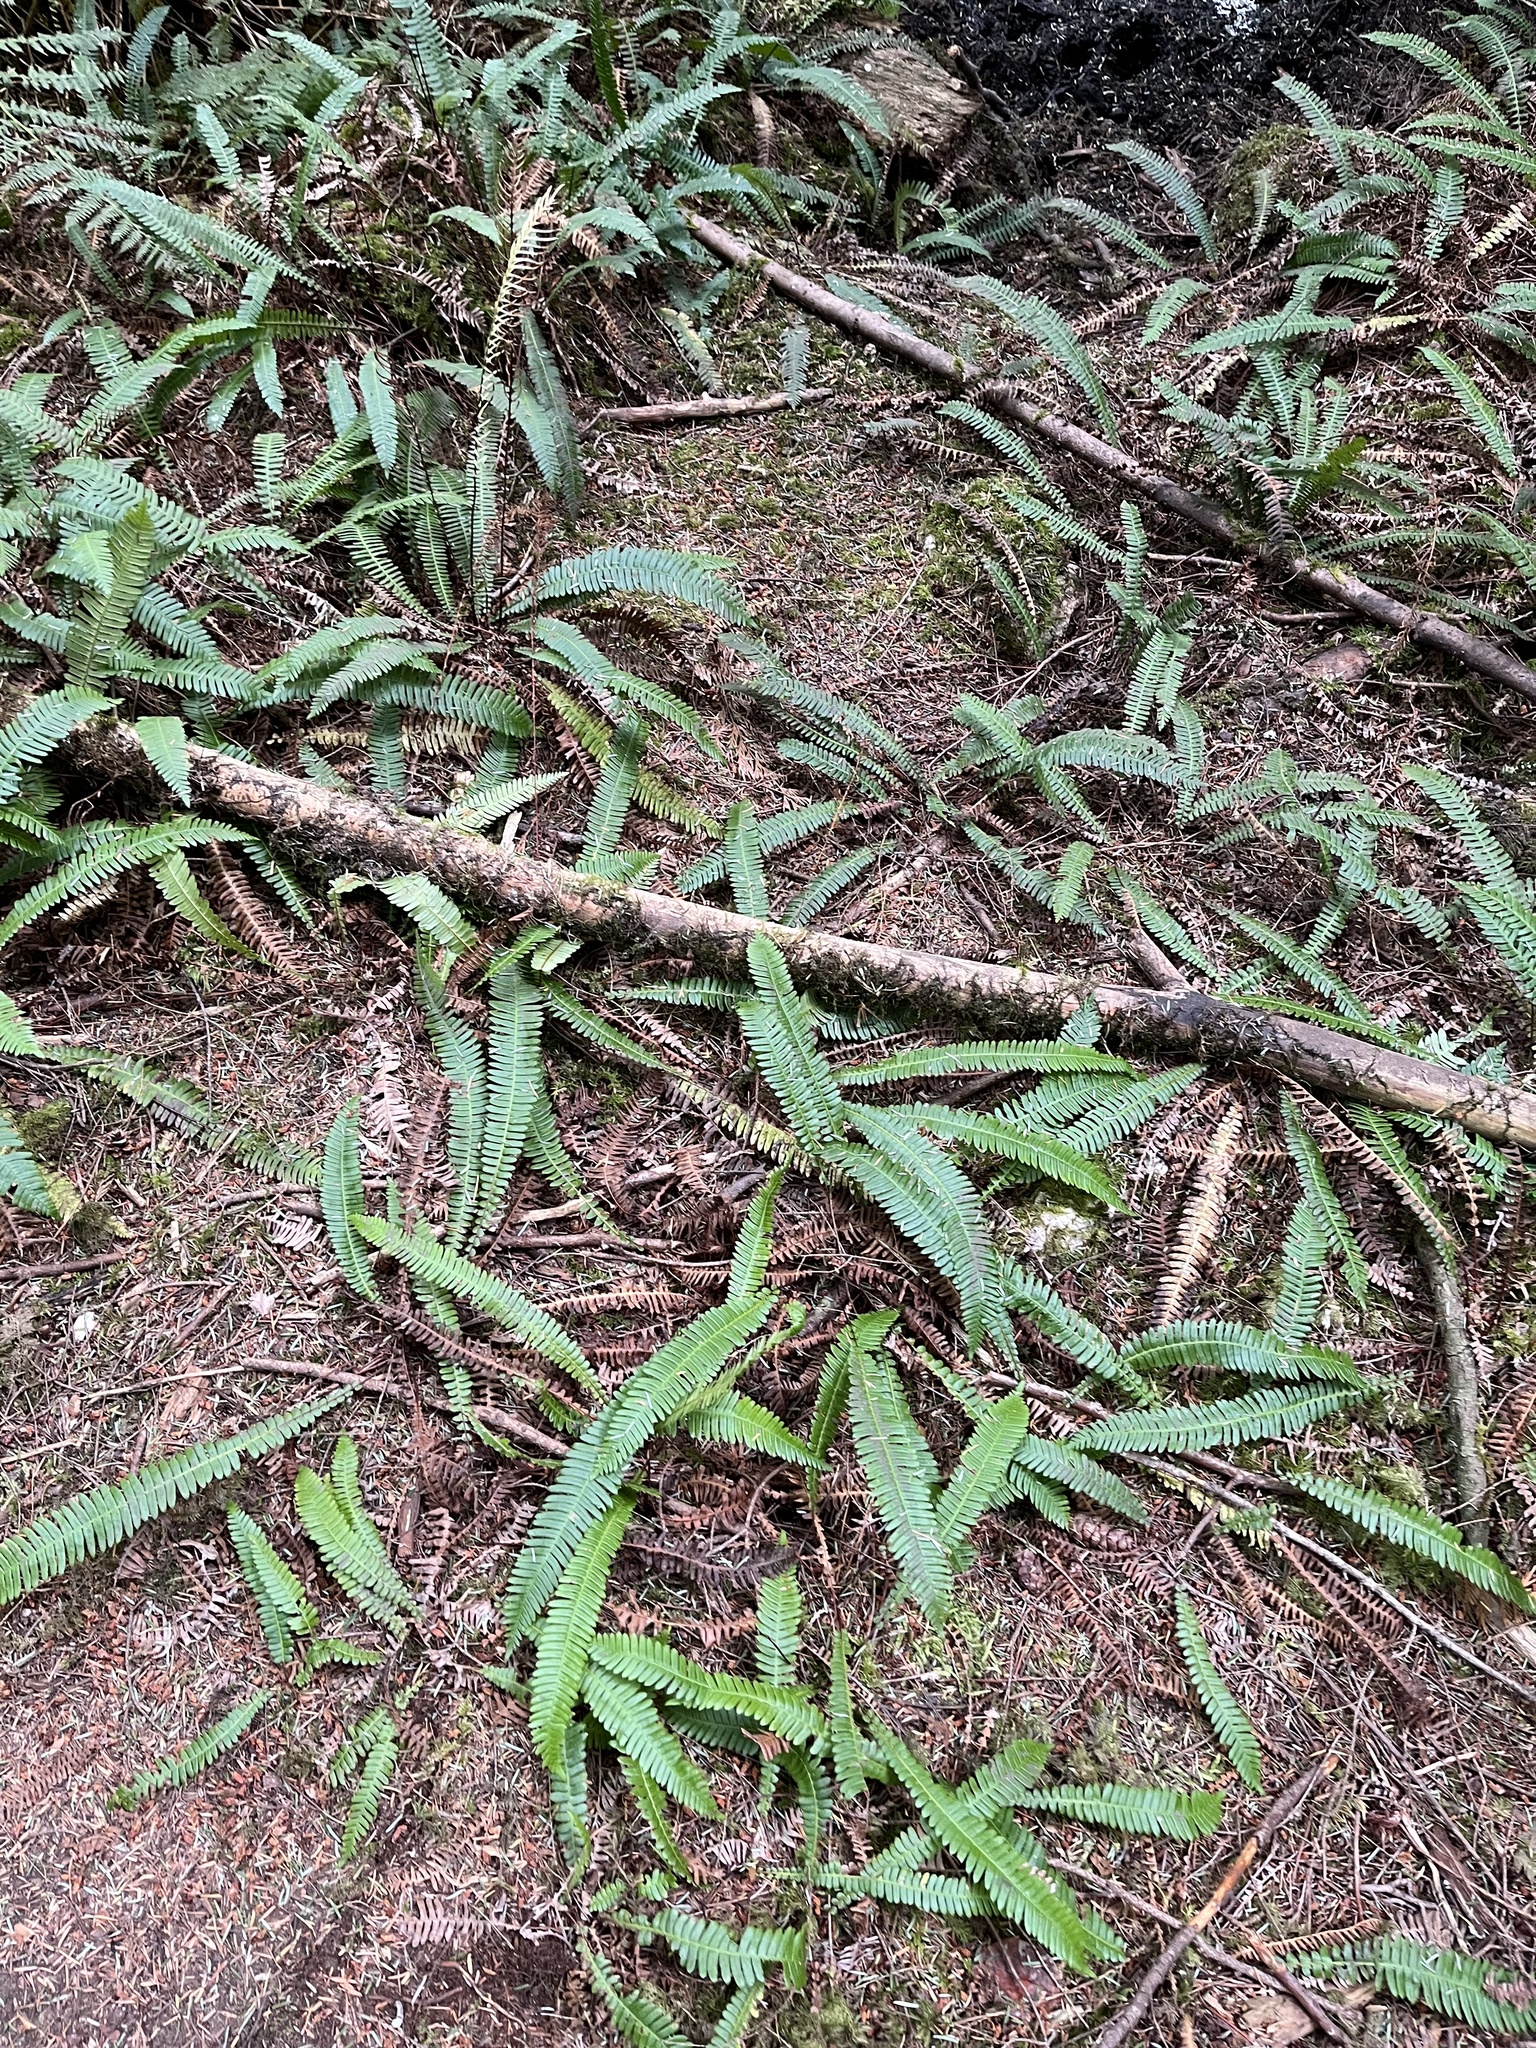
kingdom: Plantae
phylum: Tracheophyta
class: Polypodiopsida
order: Polypodiales
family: Blechnaceae
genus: Struthiopteris
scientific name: Struthiopteris spicant
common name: Deer fern
